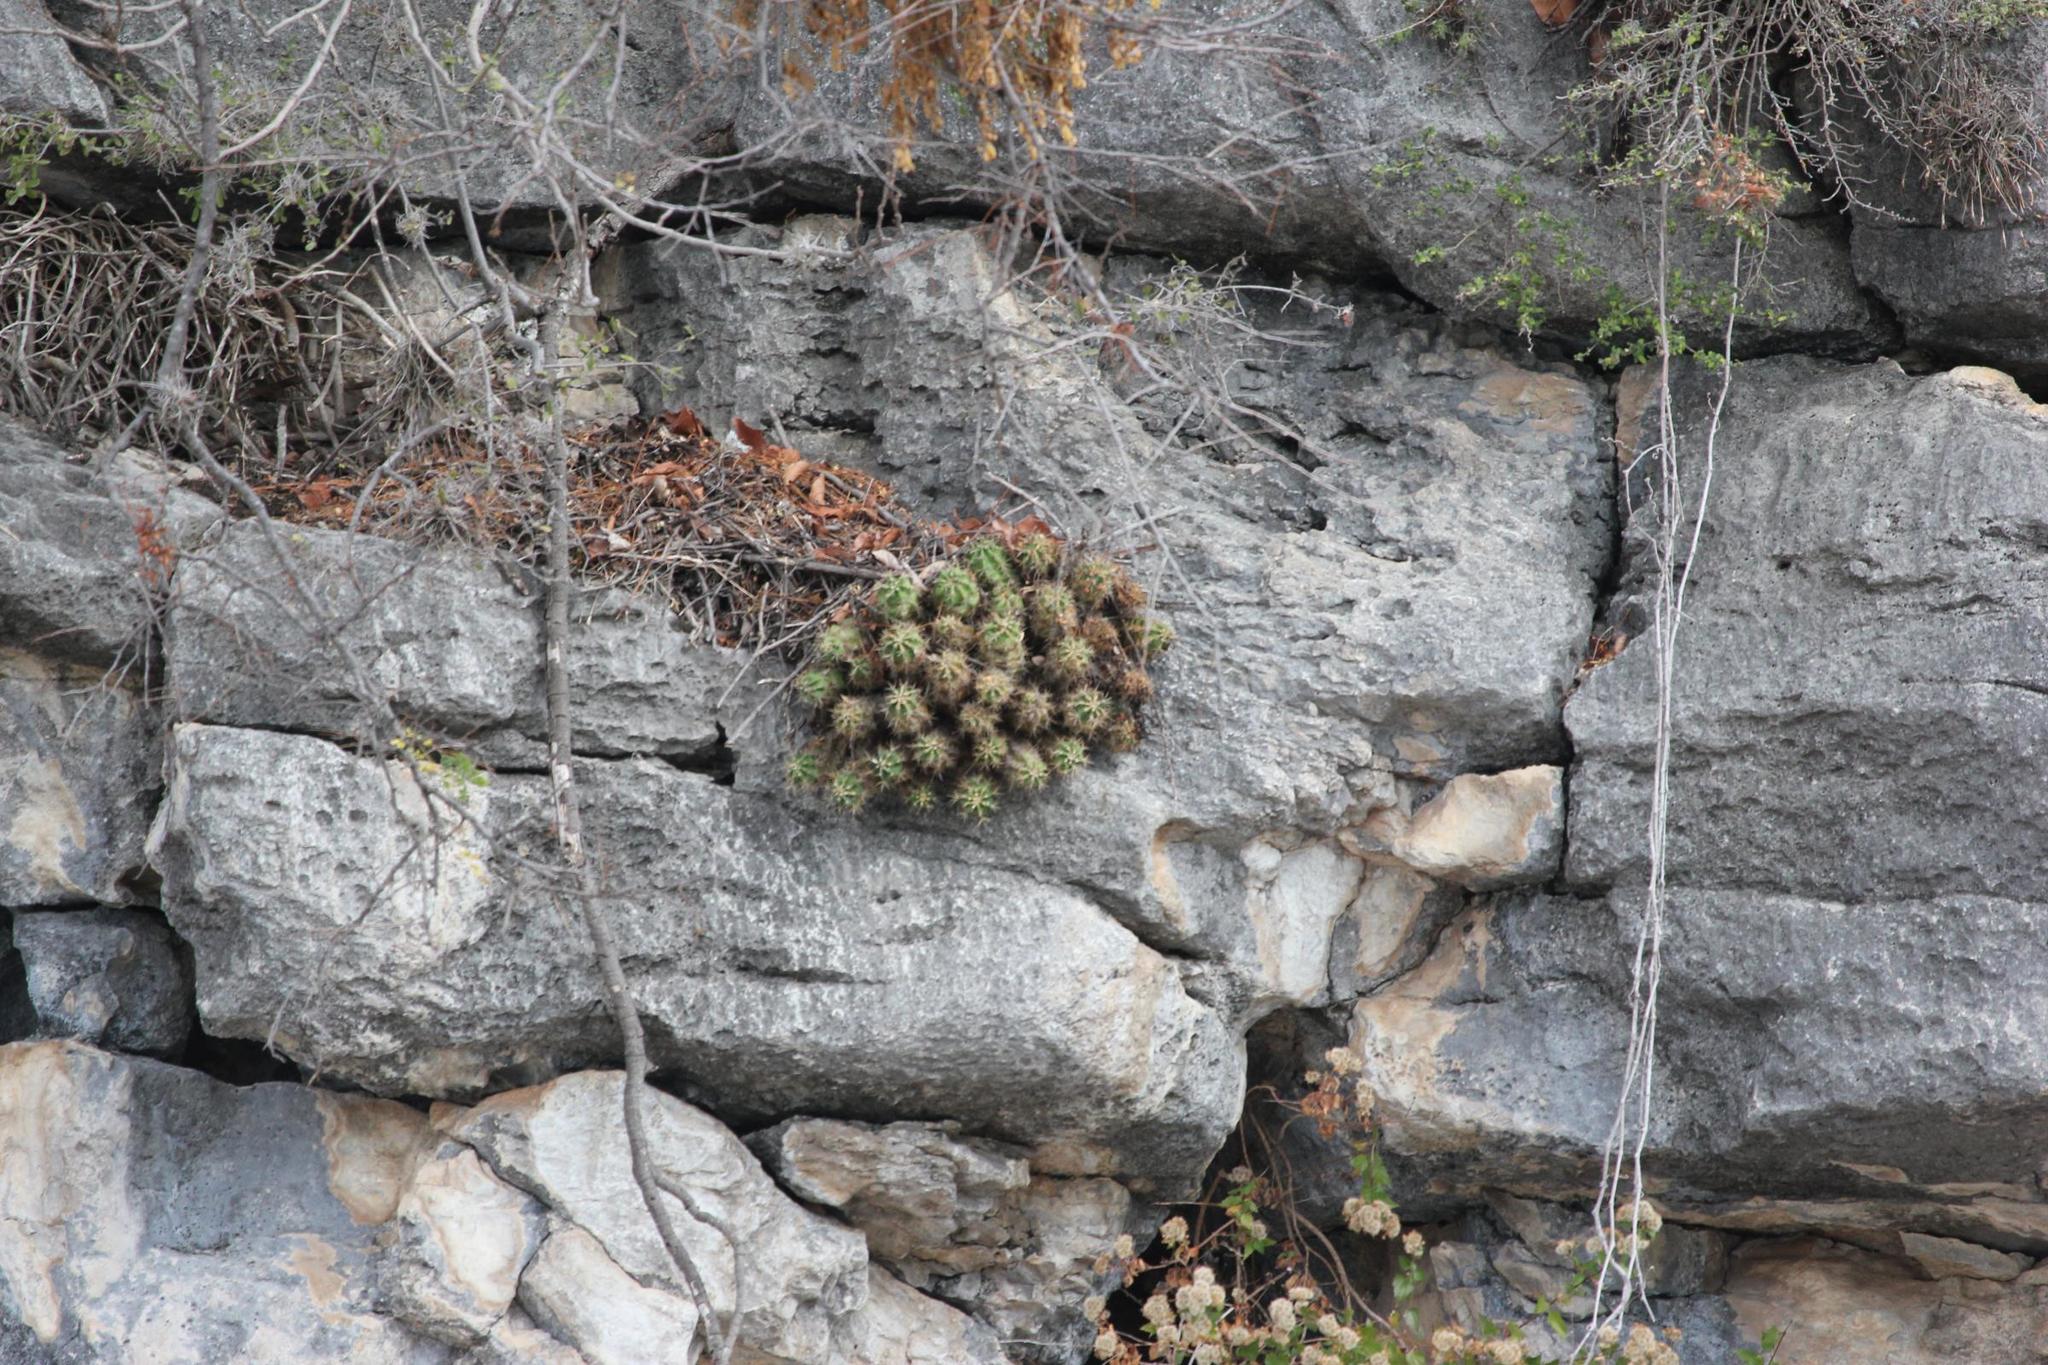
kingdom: Plantae
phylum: Tracheophyta
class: Magnoliopsida
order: Caryophyllales
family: Cactaceae
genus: Echinocereus
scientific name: Echinocereus coccineus
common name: Scarlet hedgehog cactus
